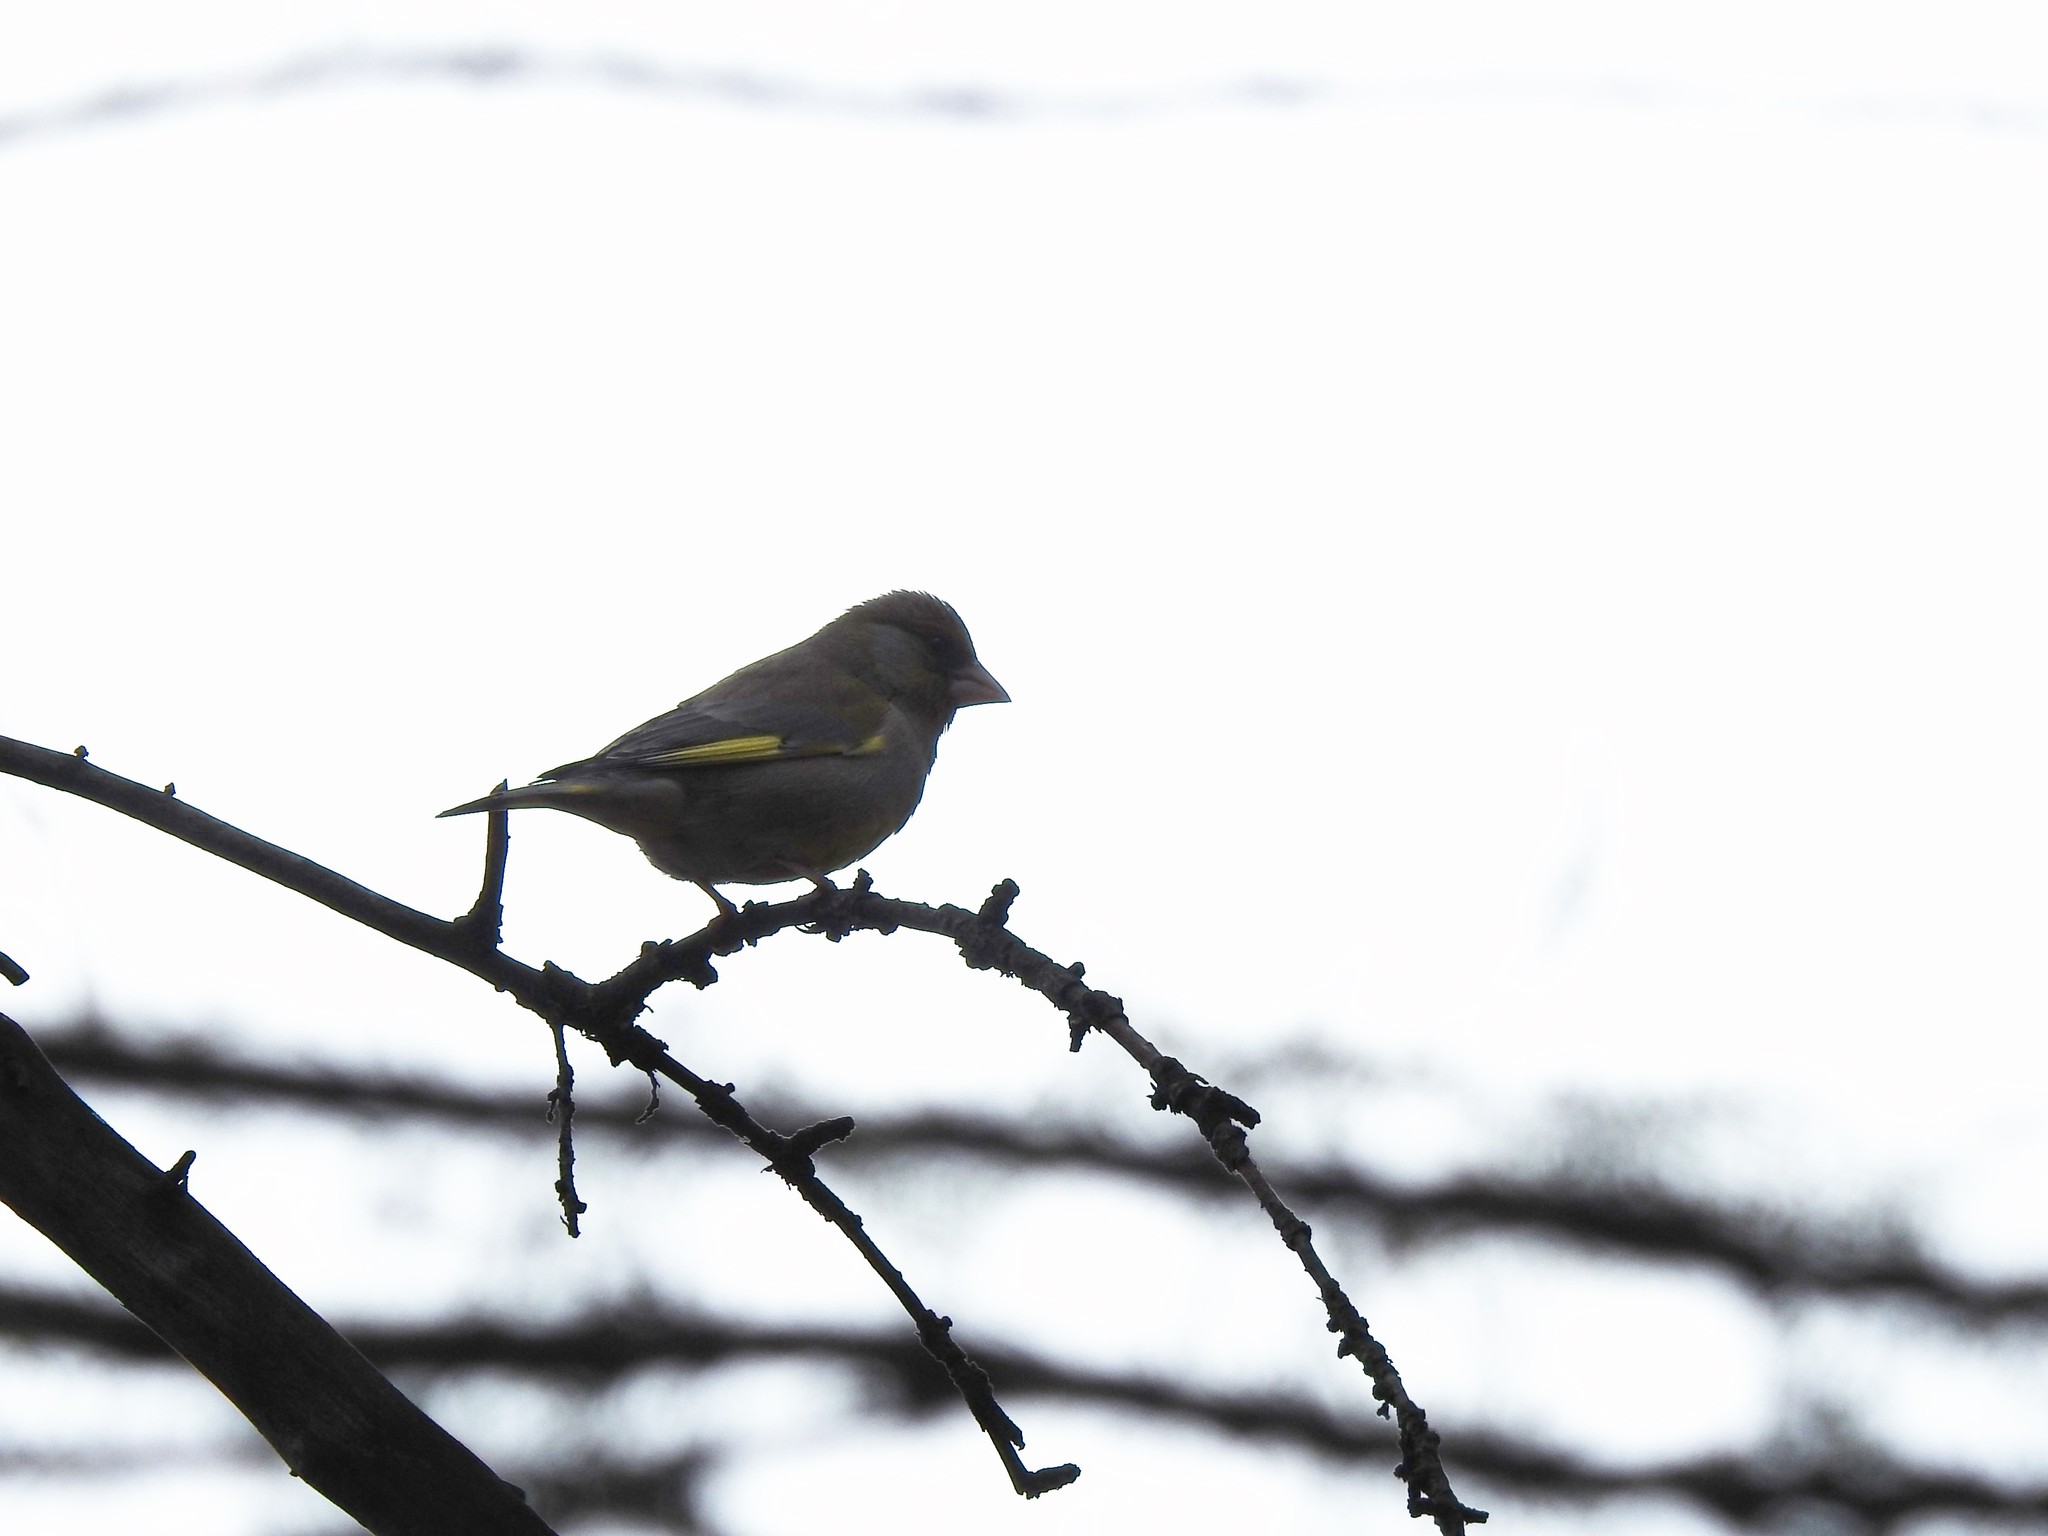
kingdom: Plantae
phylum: Tracheophyta
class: Liliopsida
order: Poales
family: Poaceae
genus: Chloris
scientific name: Chloris chloris
